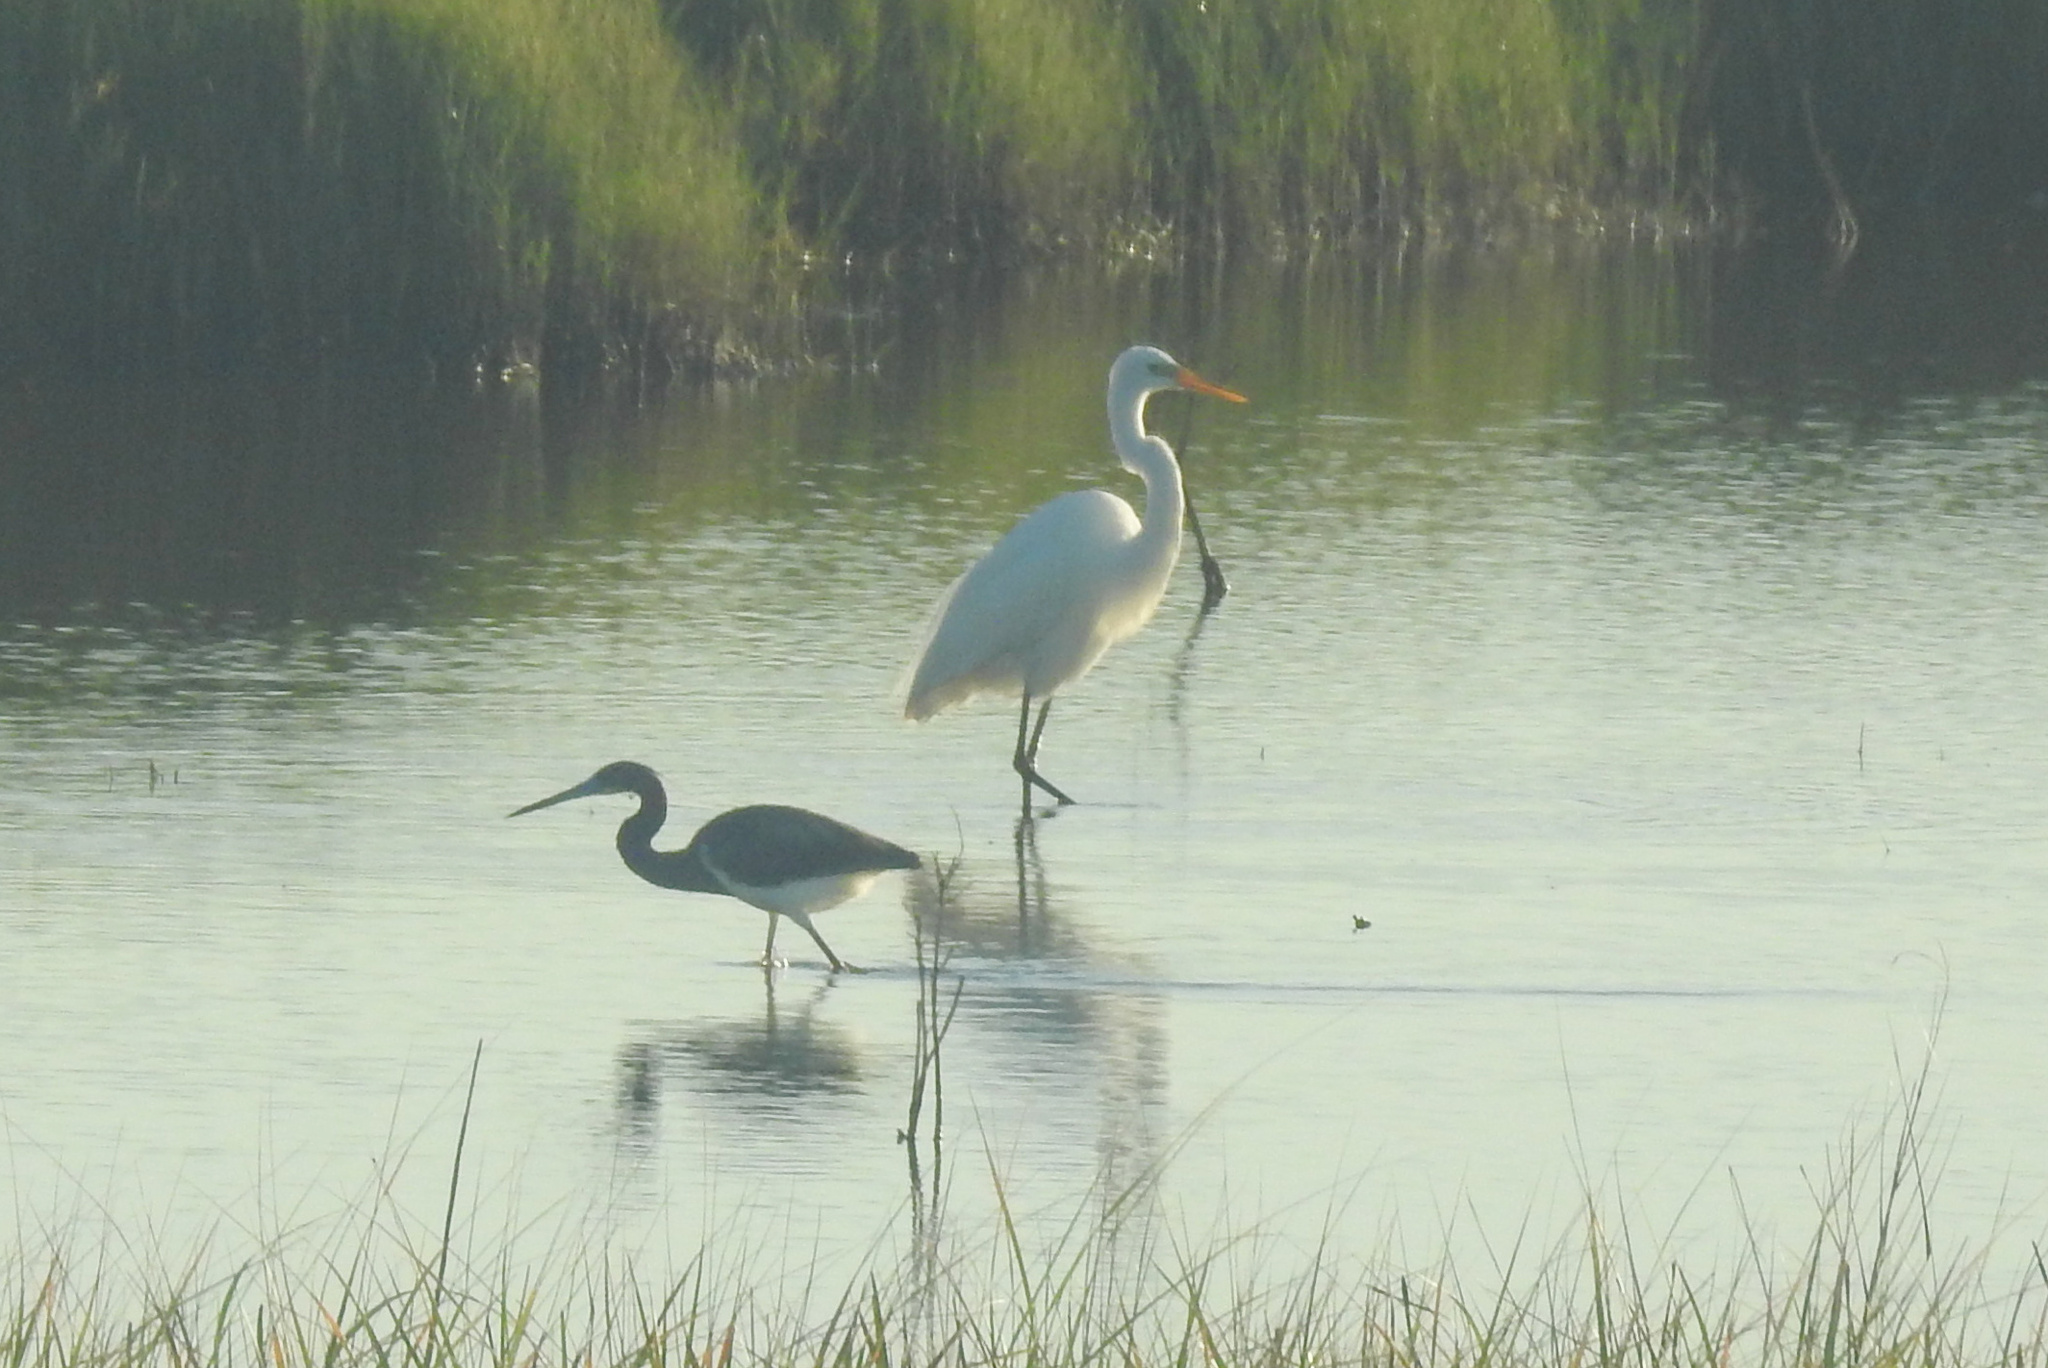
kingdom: Animalia
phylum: Chordata
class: Aves
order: Pelecaniformes
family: Ardeidae
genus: Ardea
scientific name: Ardea alba
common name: Great egret
